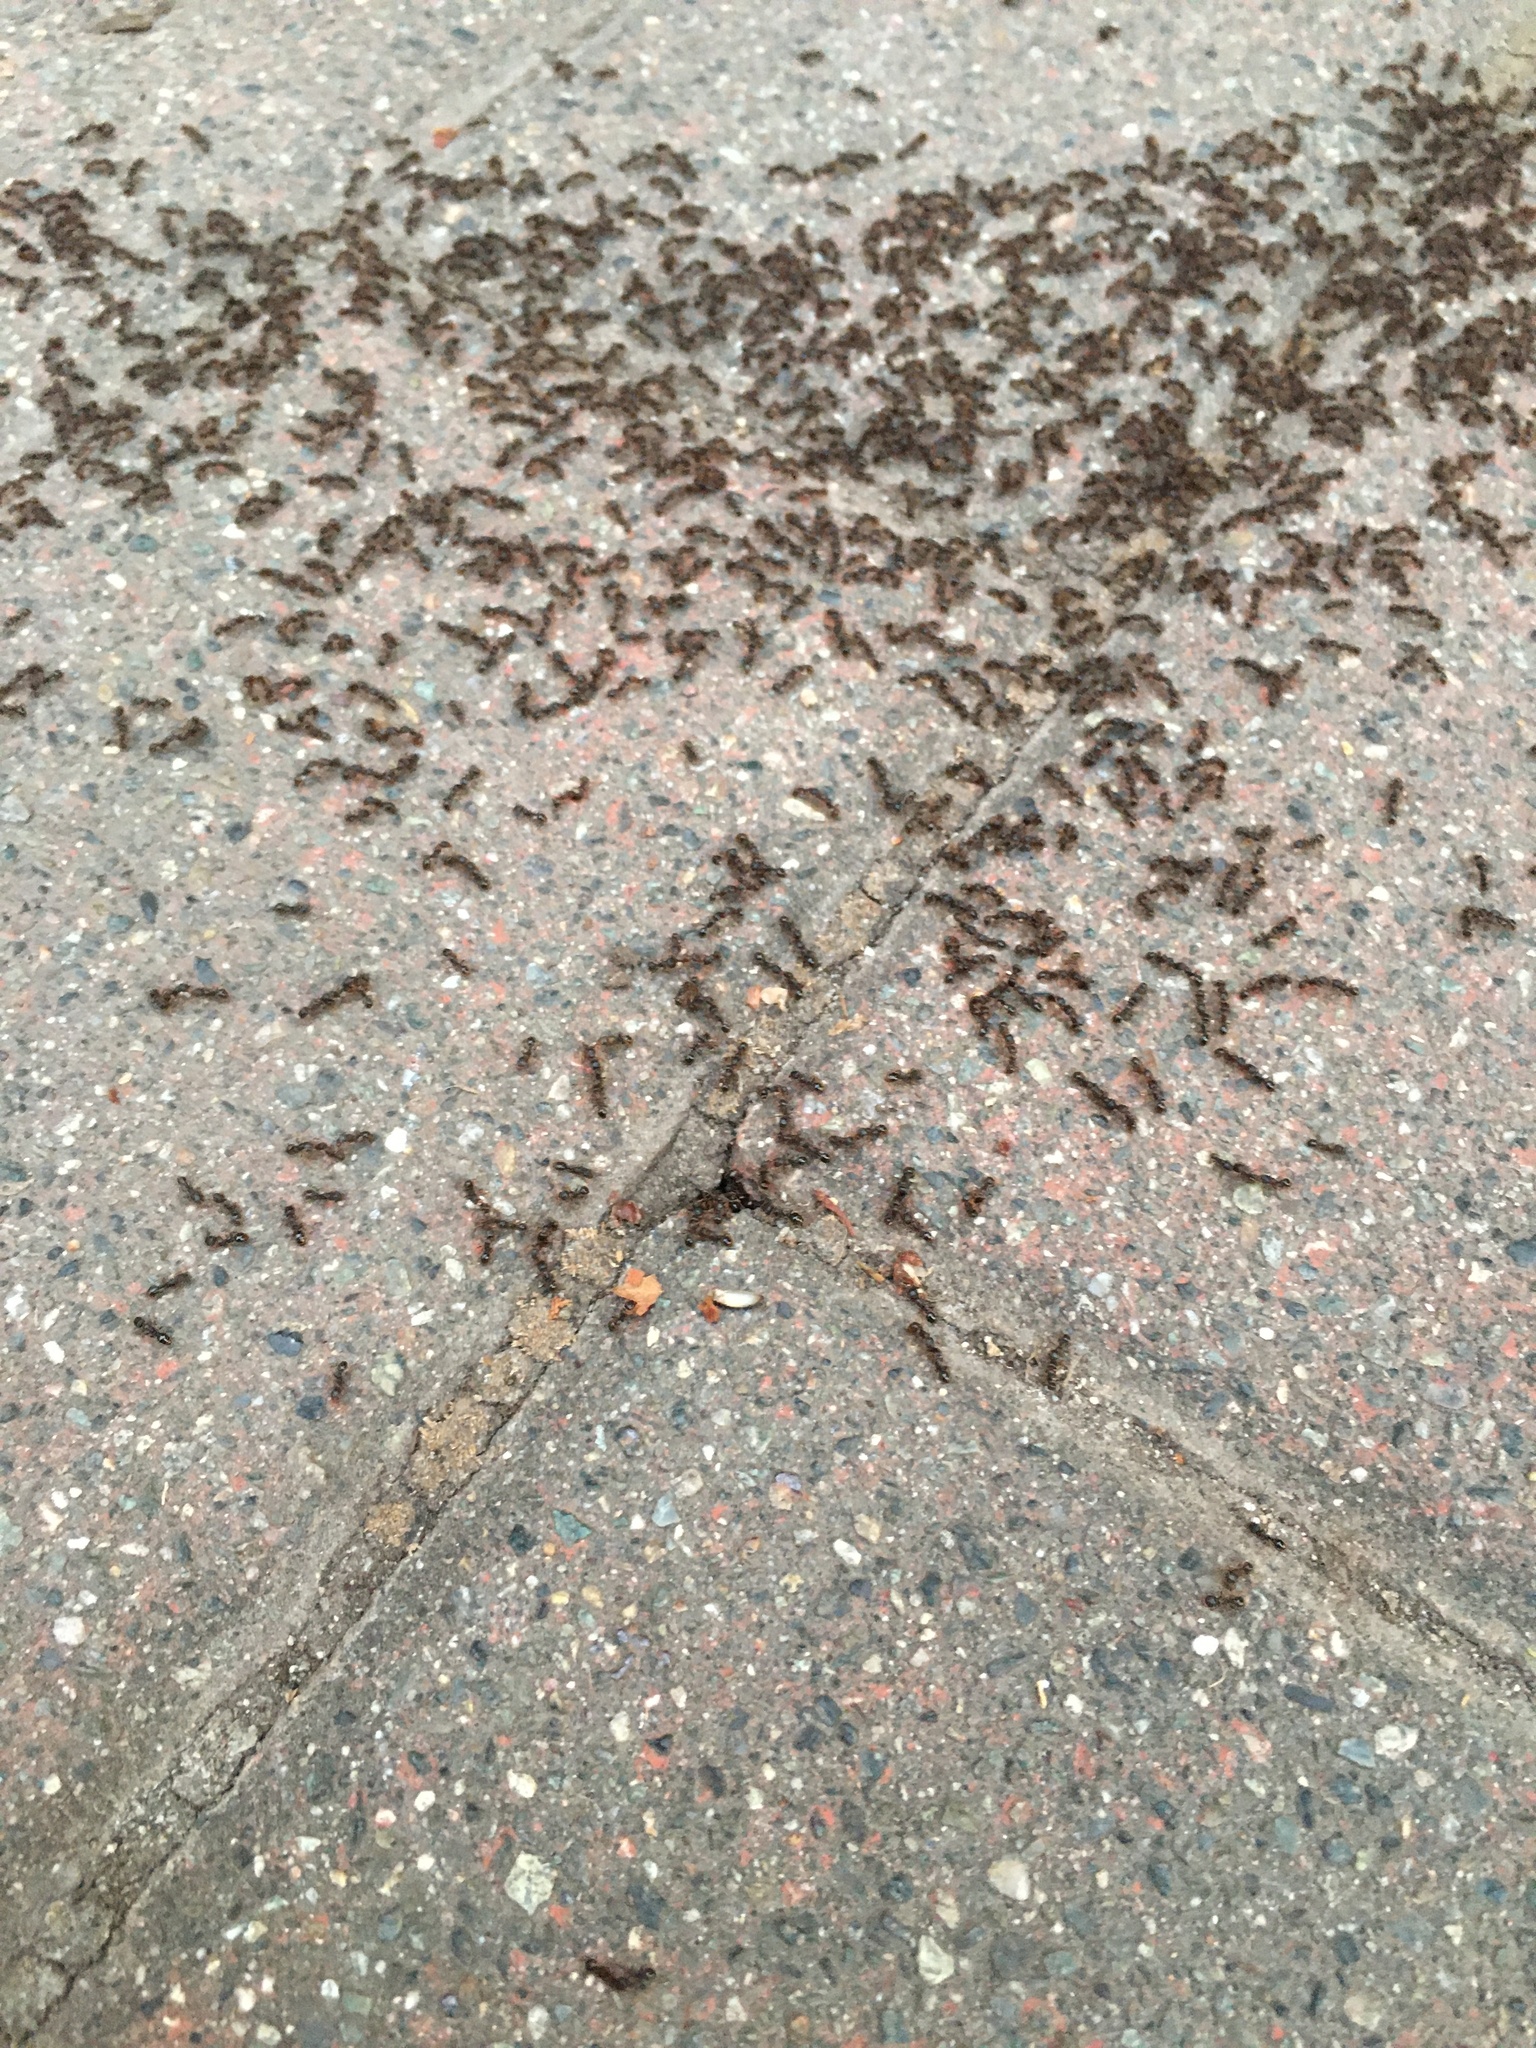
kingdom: Animalia
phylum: Arthropoda
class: Insecta
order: Hymenoptera
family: Formicidae
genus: Tetramorium
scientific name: Tetramorium immigrans
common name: Pavement ant
